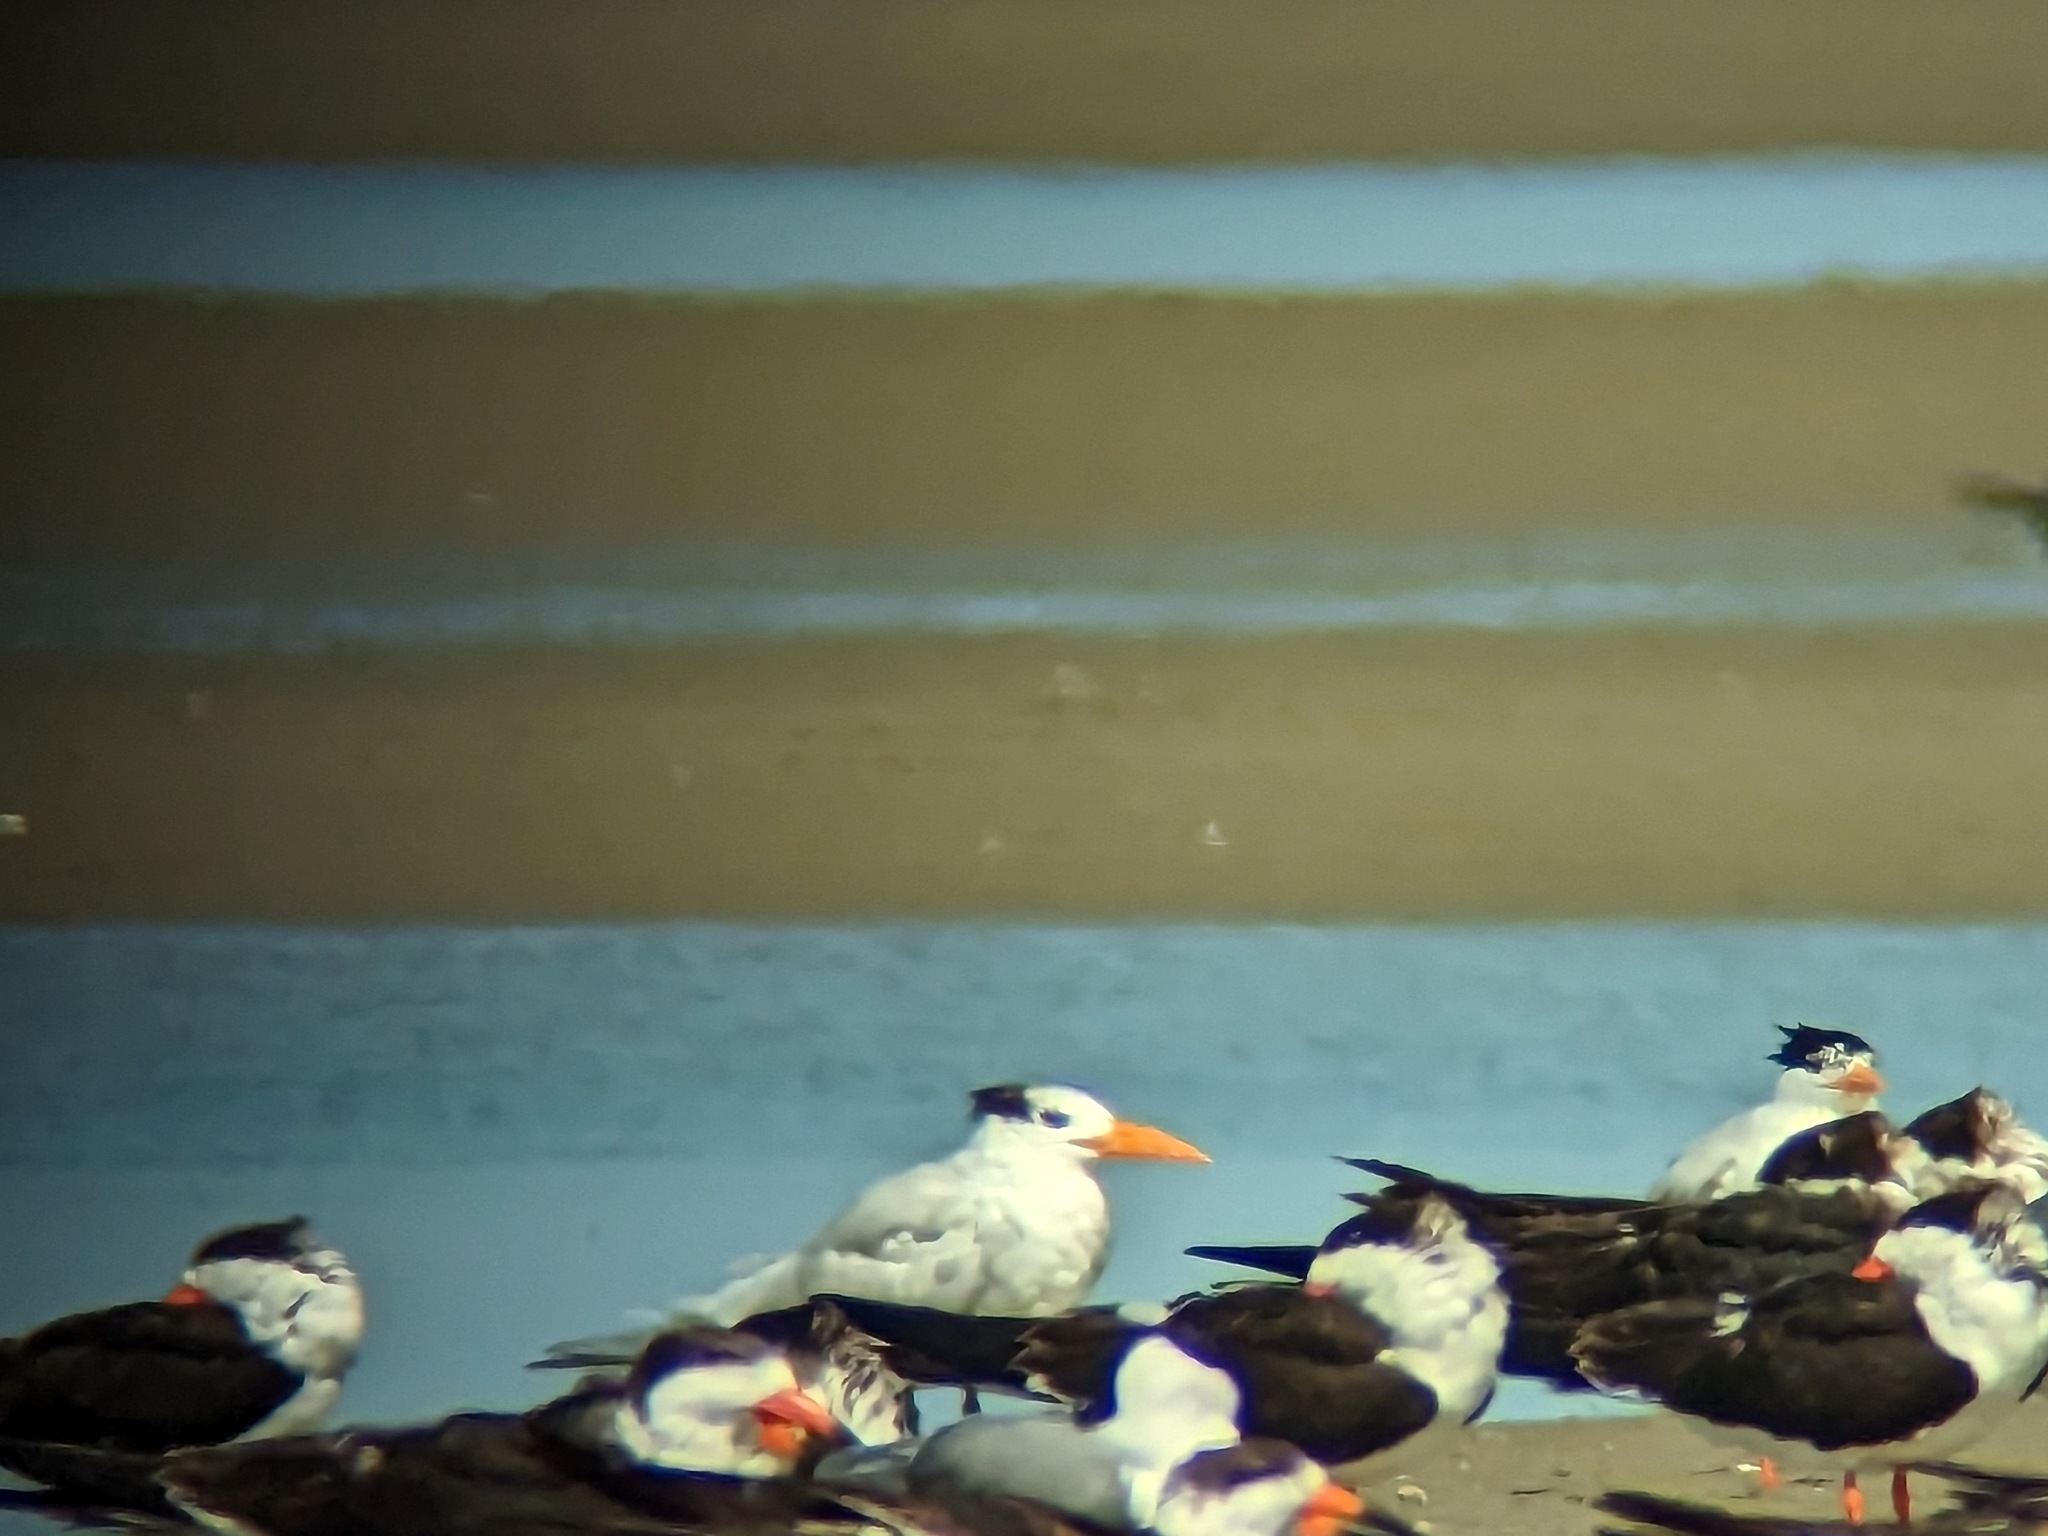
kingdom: Animalia
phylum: Chordata
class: Aves
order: Charadriiformes
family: Laridae
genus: Thalasseus
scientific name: Thalasseus maximus
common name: Royal tern
